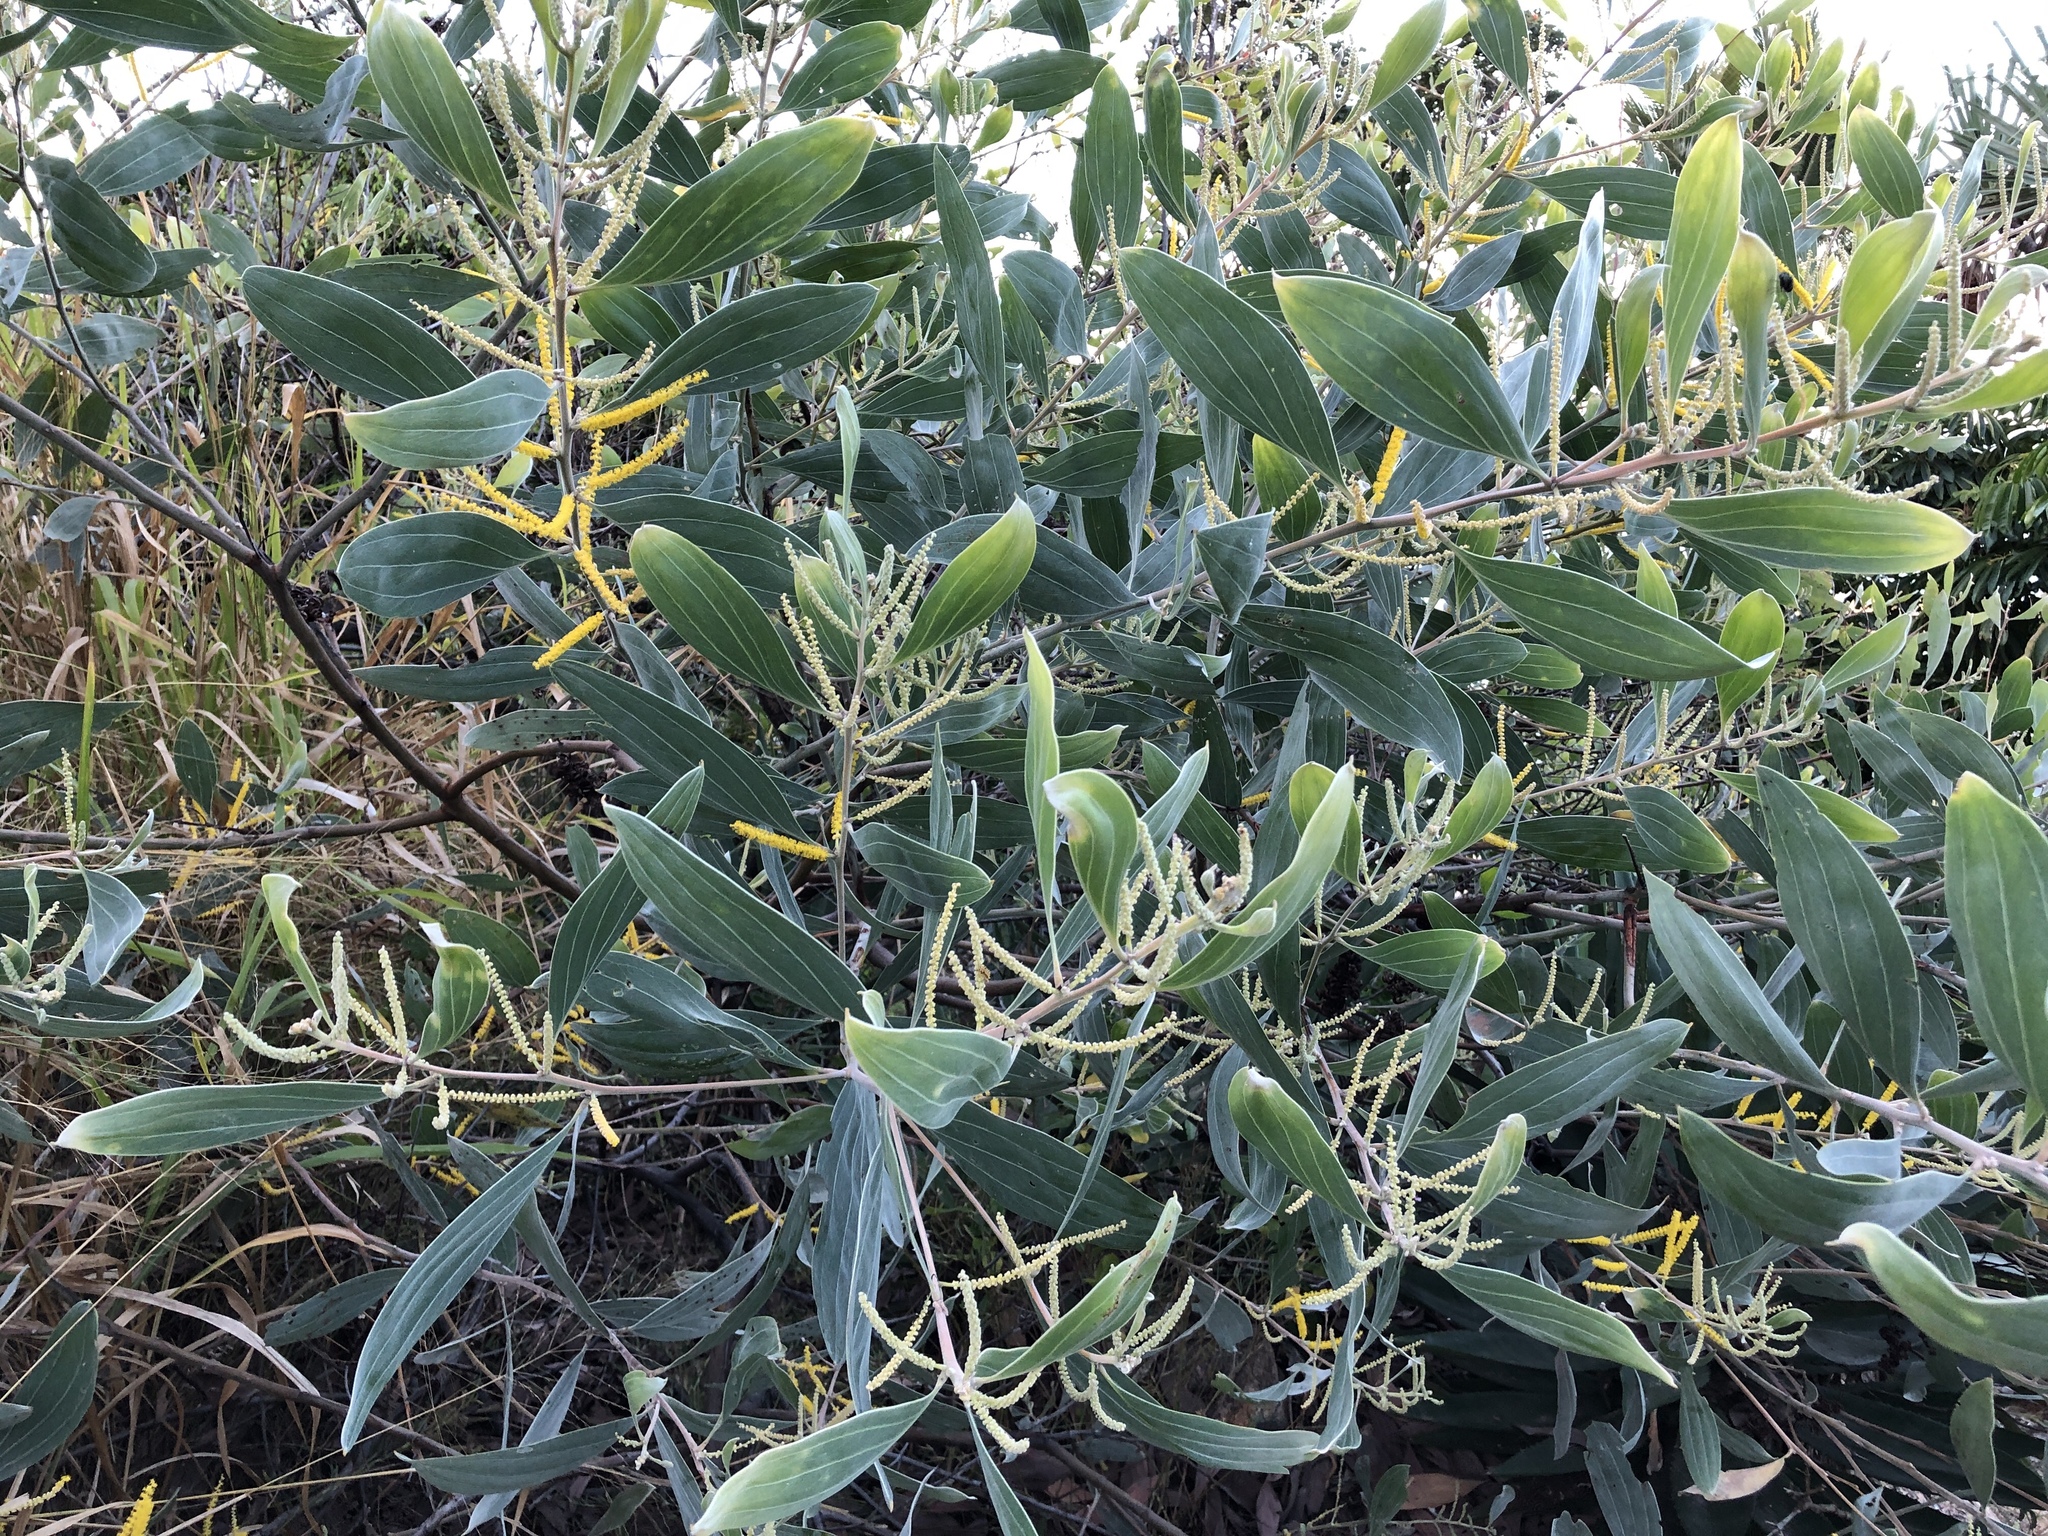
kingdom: Plantae
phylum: Tracheophyta
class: Magnoliopsida
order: Fabales
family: Fabaceae
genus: Acacia
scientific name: Acacia holosericea
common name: Candelabra wattle
